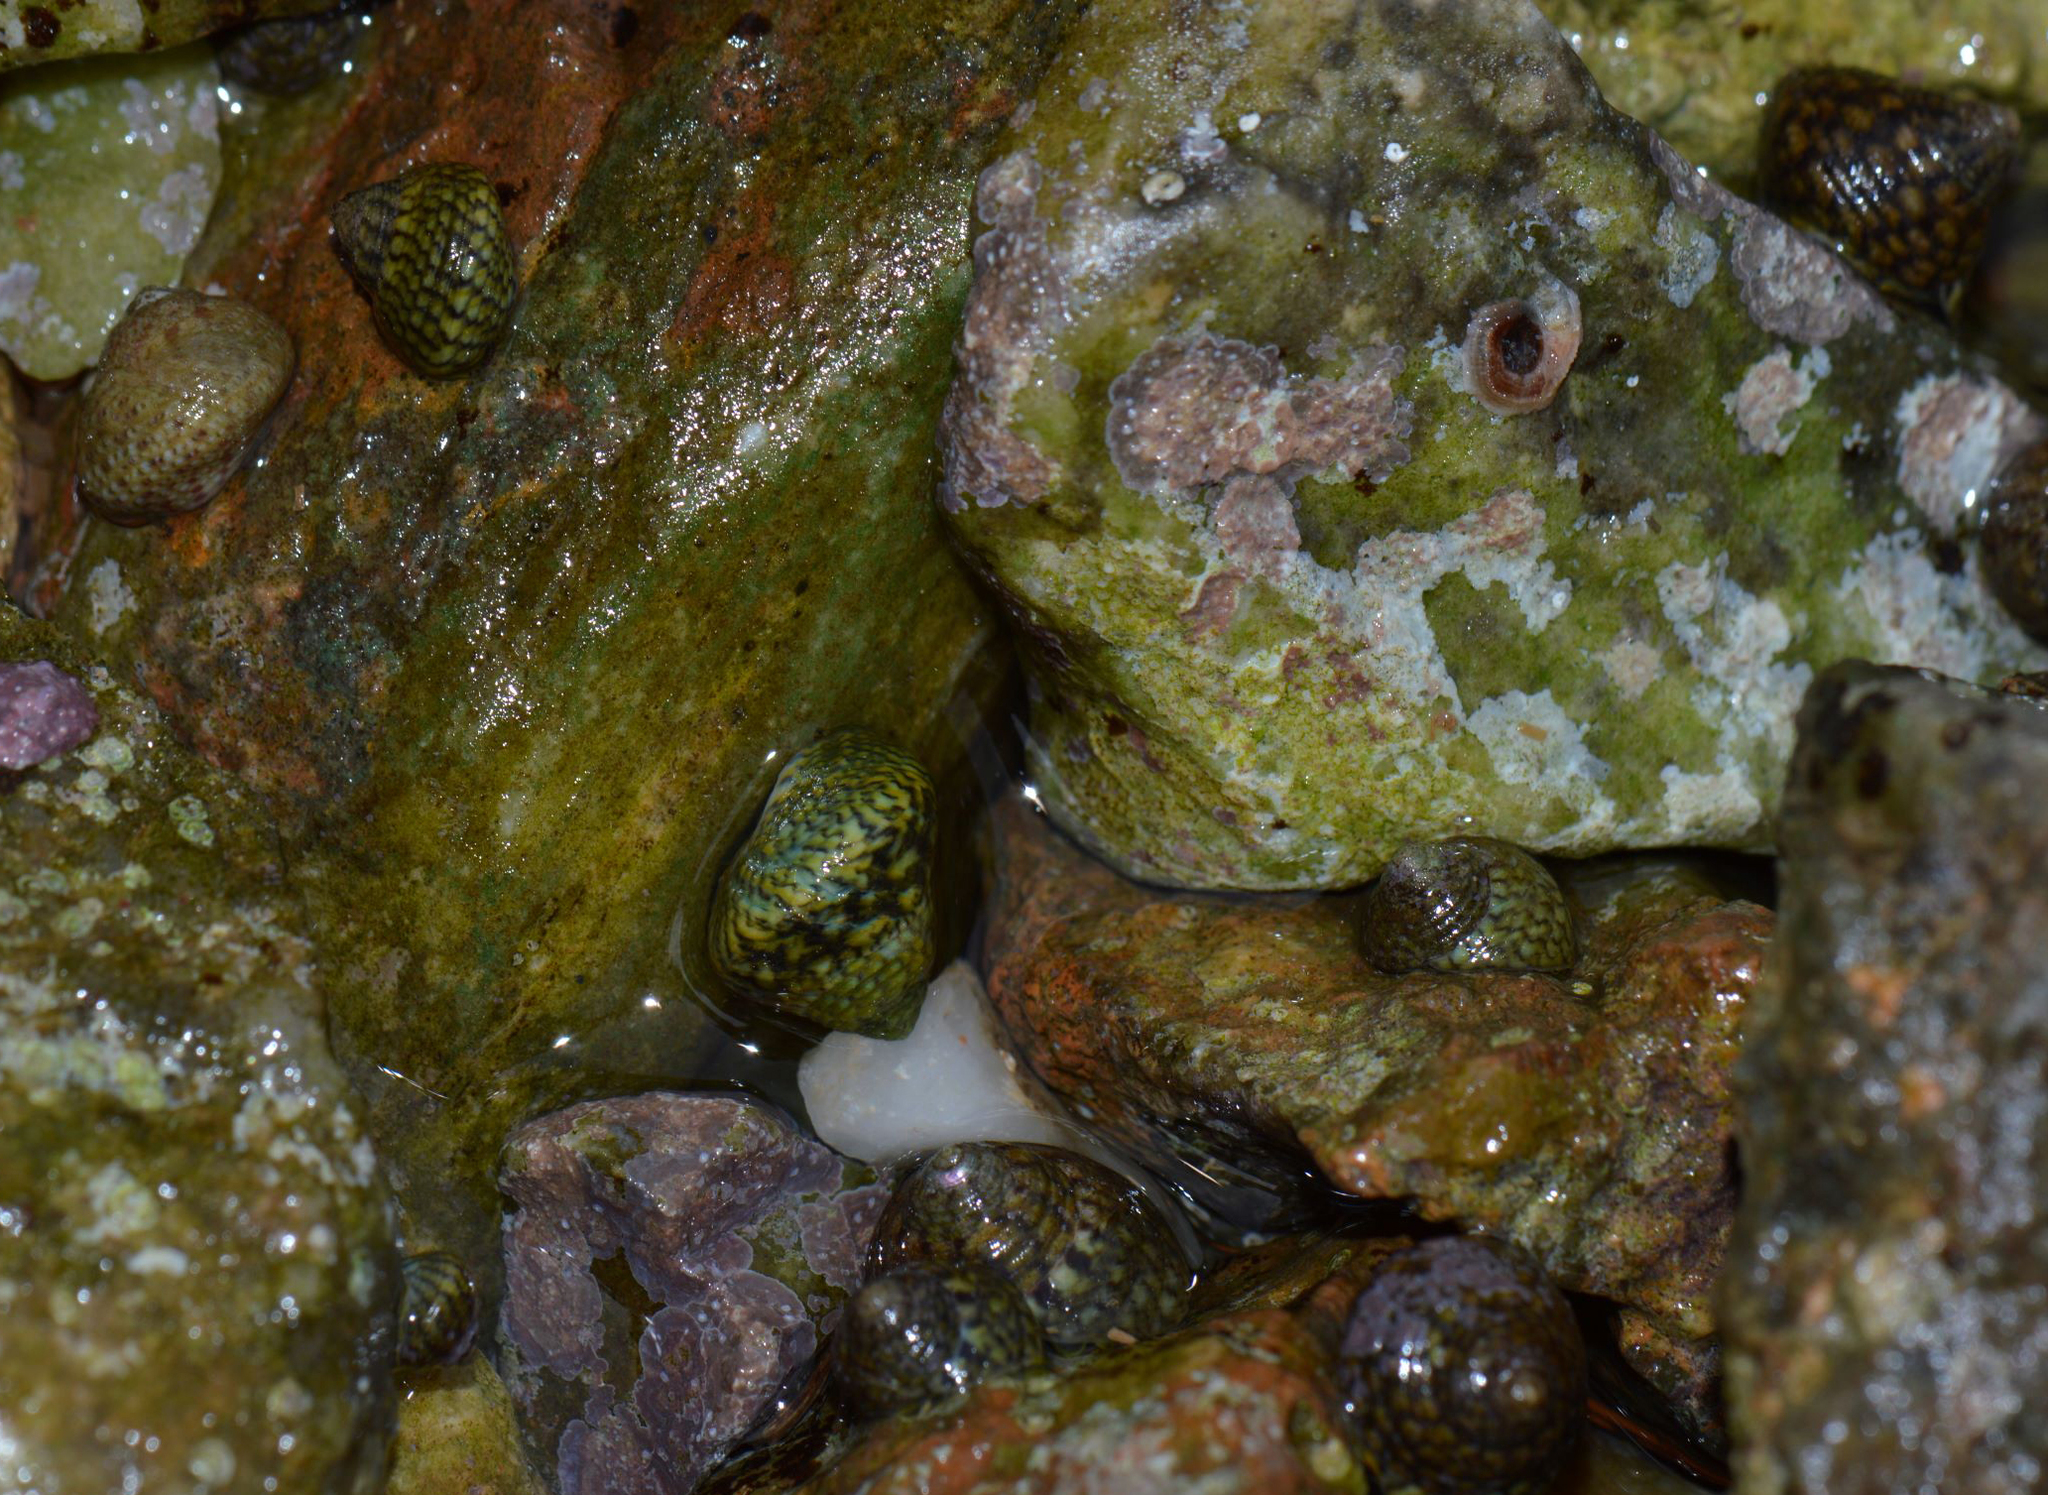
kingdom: Animalia
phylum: Mollusca
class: Gastropoda
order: Trochida
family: Trochidae
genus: Phorcus
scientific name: Phorcus articulatus
